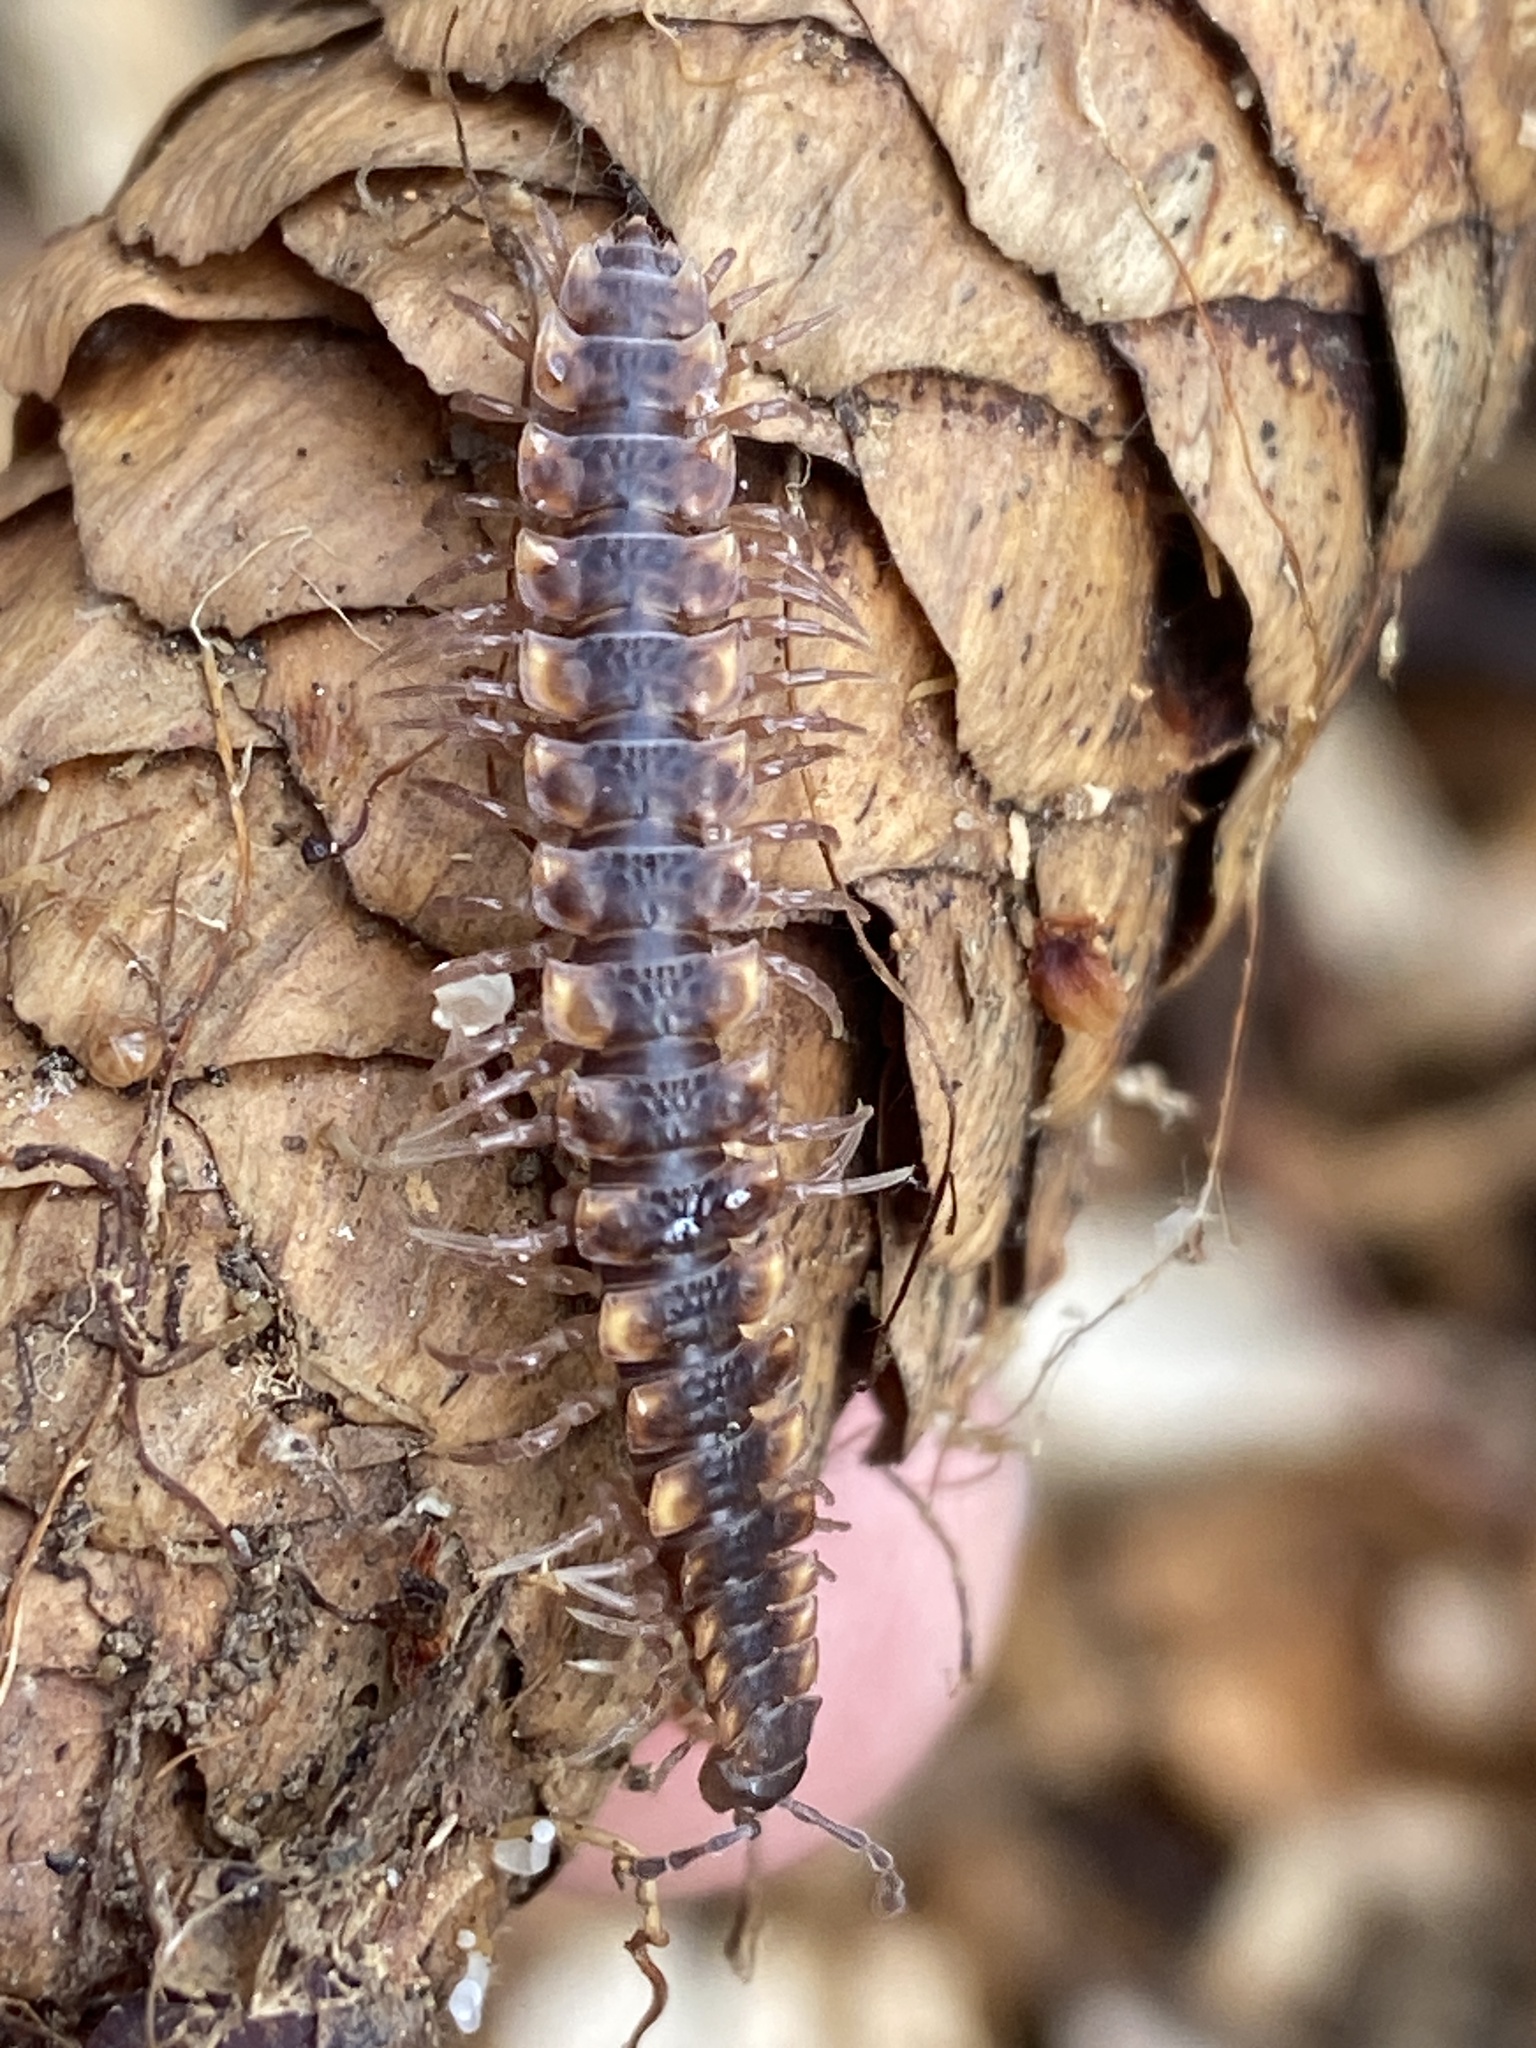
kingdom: Animalia
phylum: Arthropoda
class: Diplopoda
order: Polydesmida
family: Polydesmidae
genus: Polydesmus
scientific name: Polydesmus complanatus
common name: Flat-backed millipede
